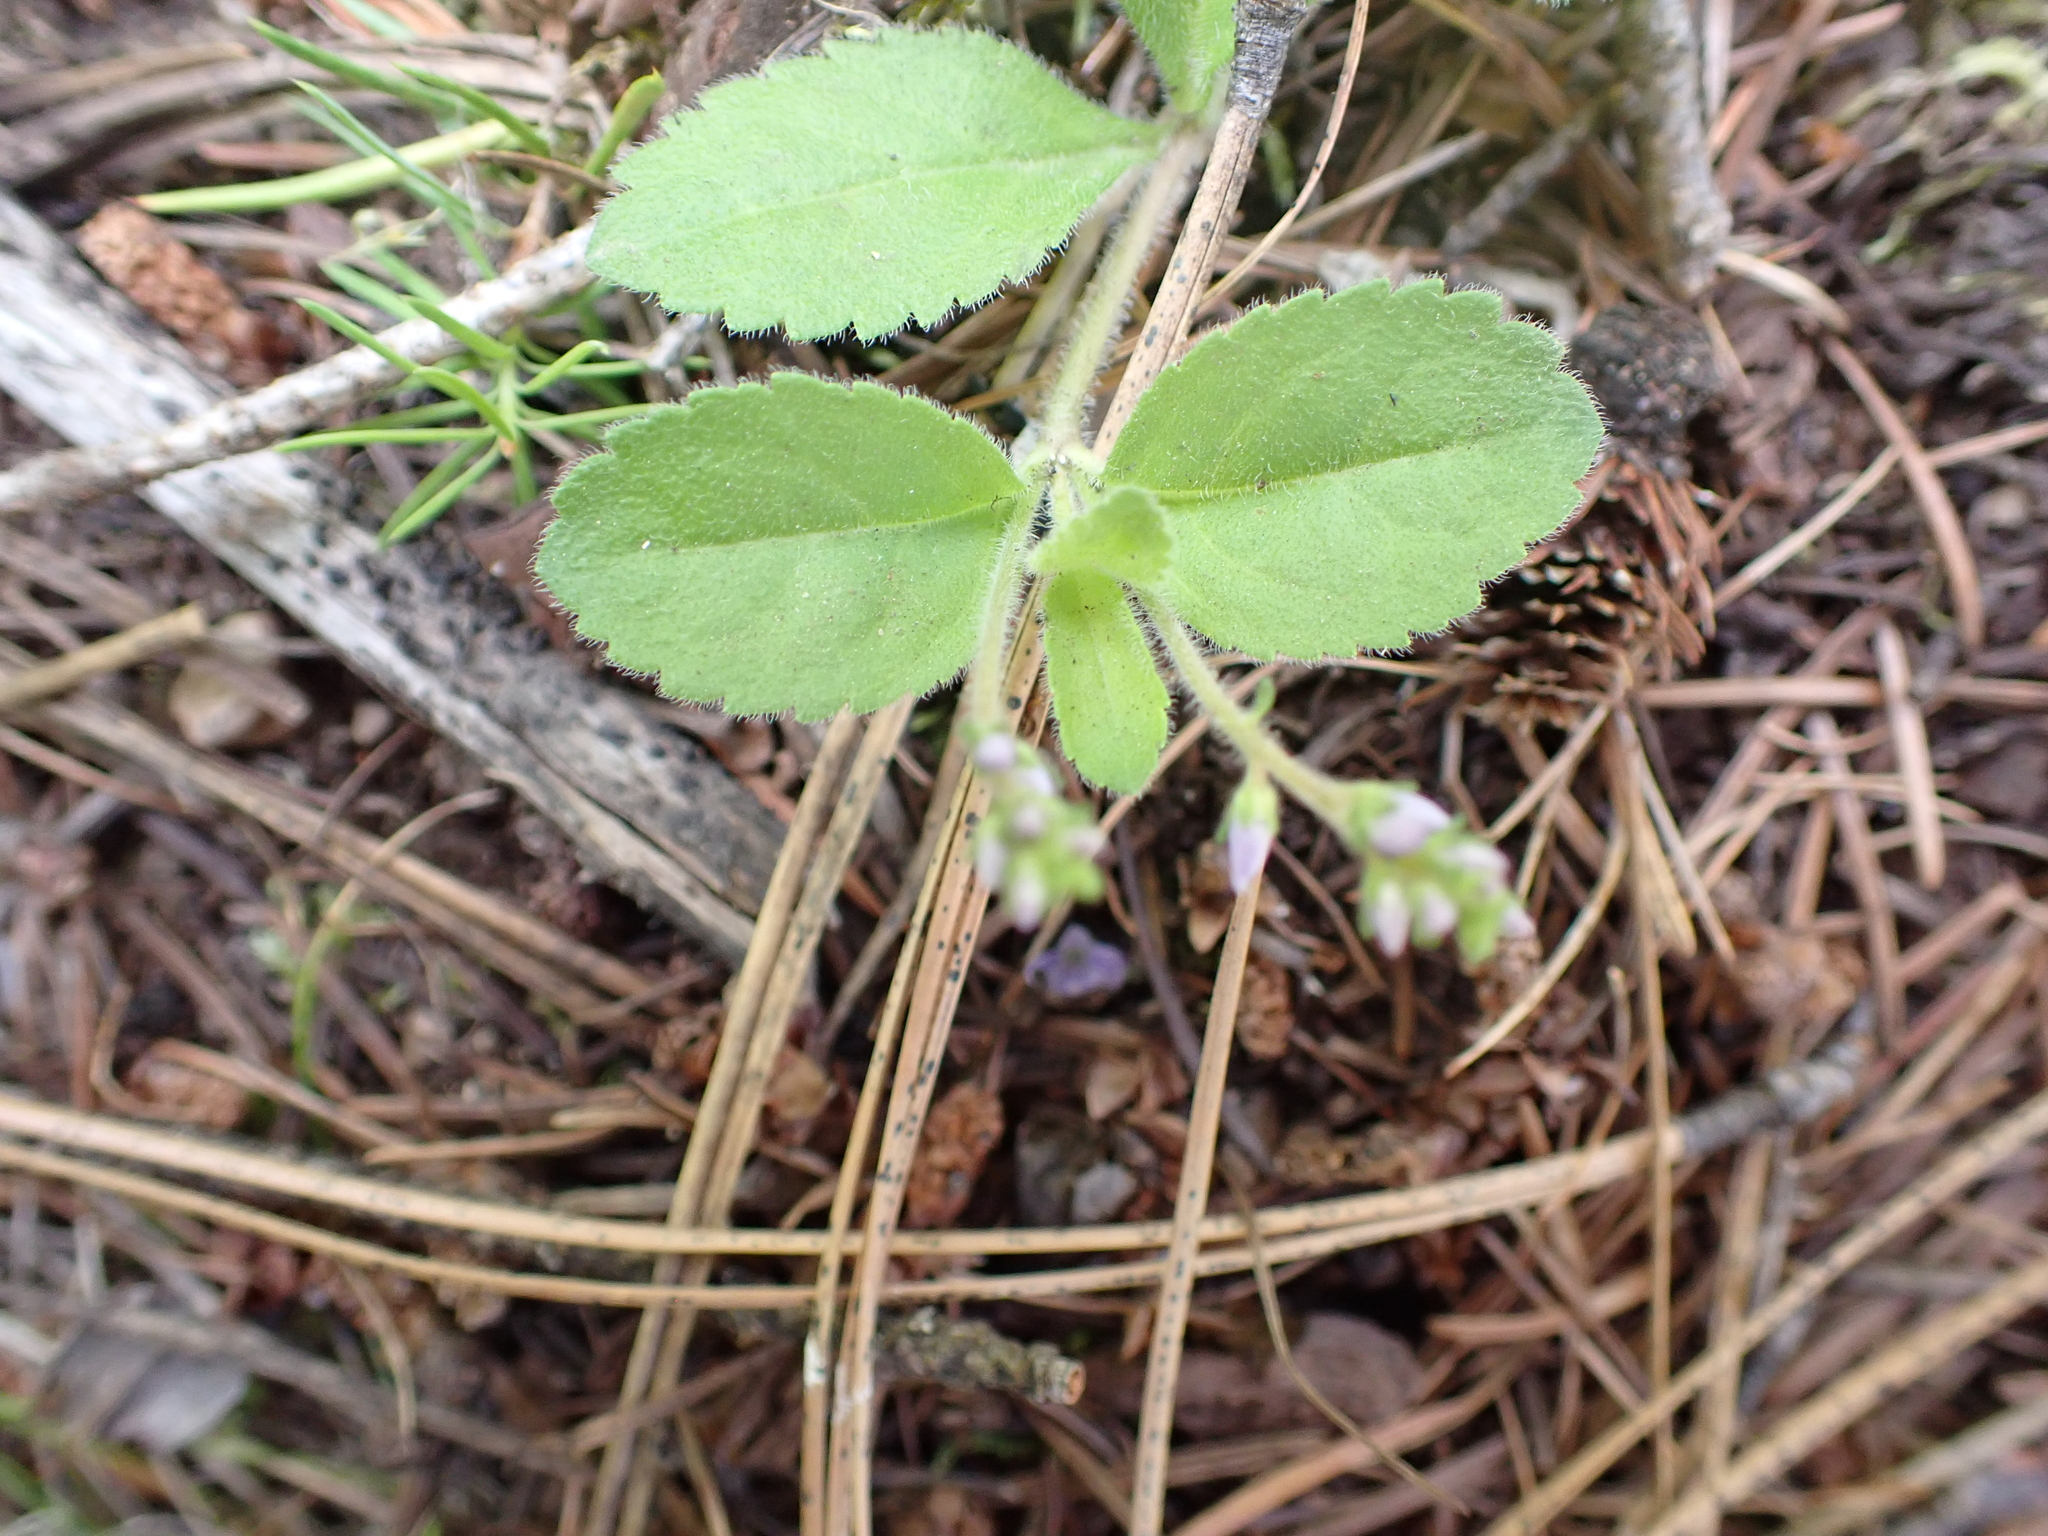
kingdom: Plantae
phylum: Tracheophyta
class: Magnoliopsida
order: Lamiales
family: Plantaginaceae
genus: Veronica
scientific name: Veronica officinalis
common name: Common speedwell
